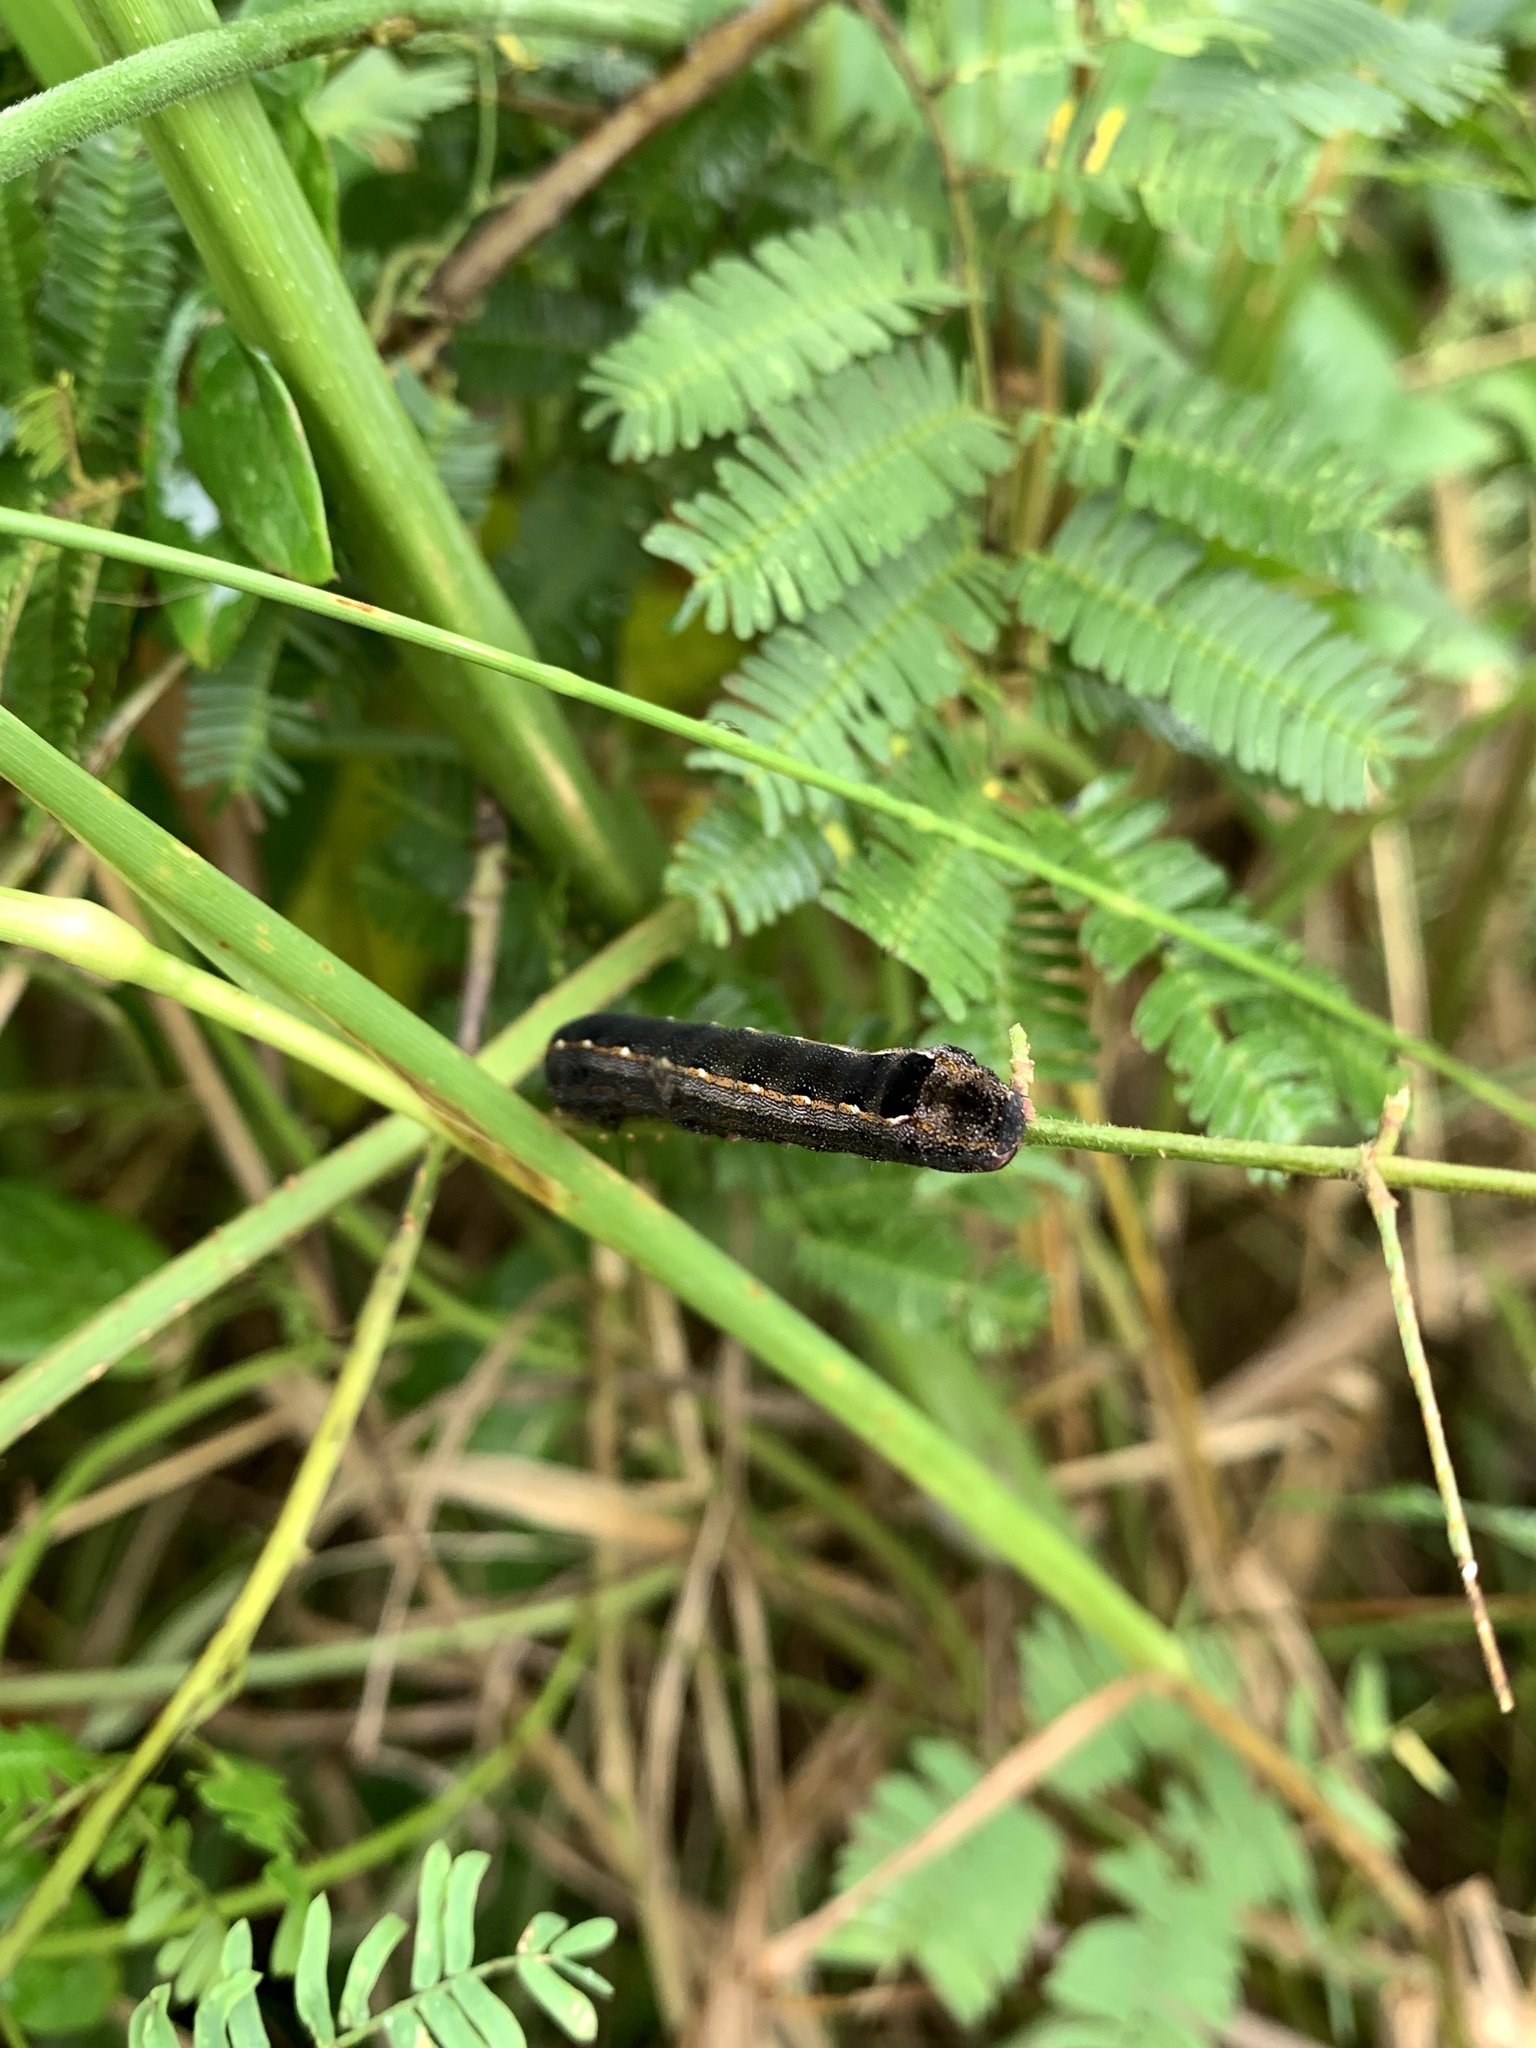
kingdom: Animalia
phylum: Arthropoda
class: Insecta
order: Lepidoptera
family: Noctuidae
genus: Spodoptera
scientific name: Spodoptera cosmioides
